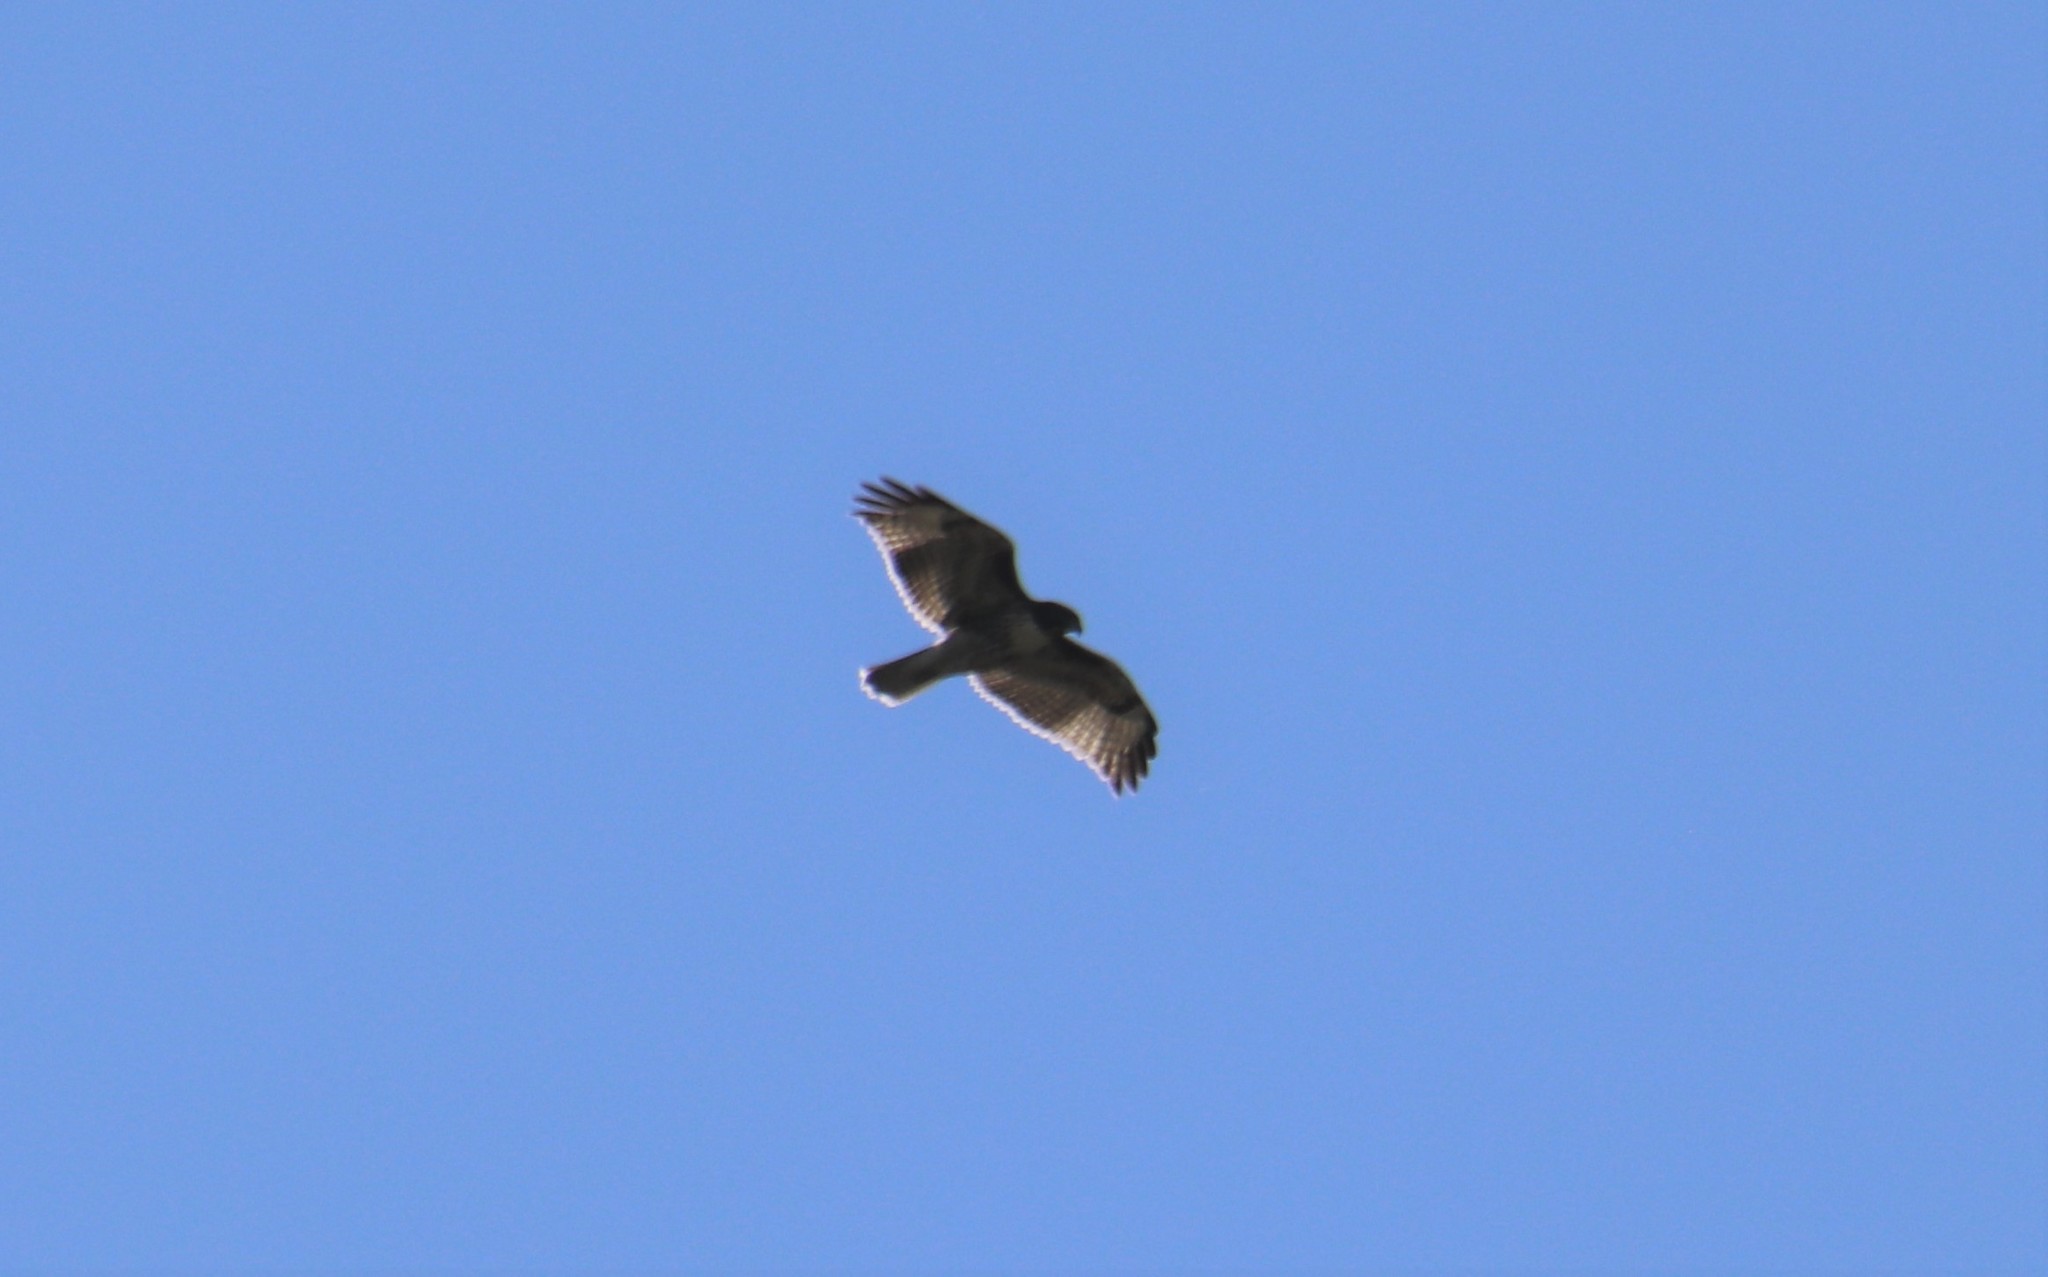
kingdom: Animalia
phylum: Chordata
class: Aves
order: Accipitriformes
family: Accipitridae
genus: Buteo
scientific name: Buteo jamaicensis
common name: Red-tailed hawk
